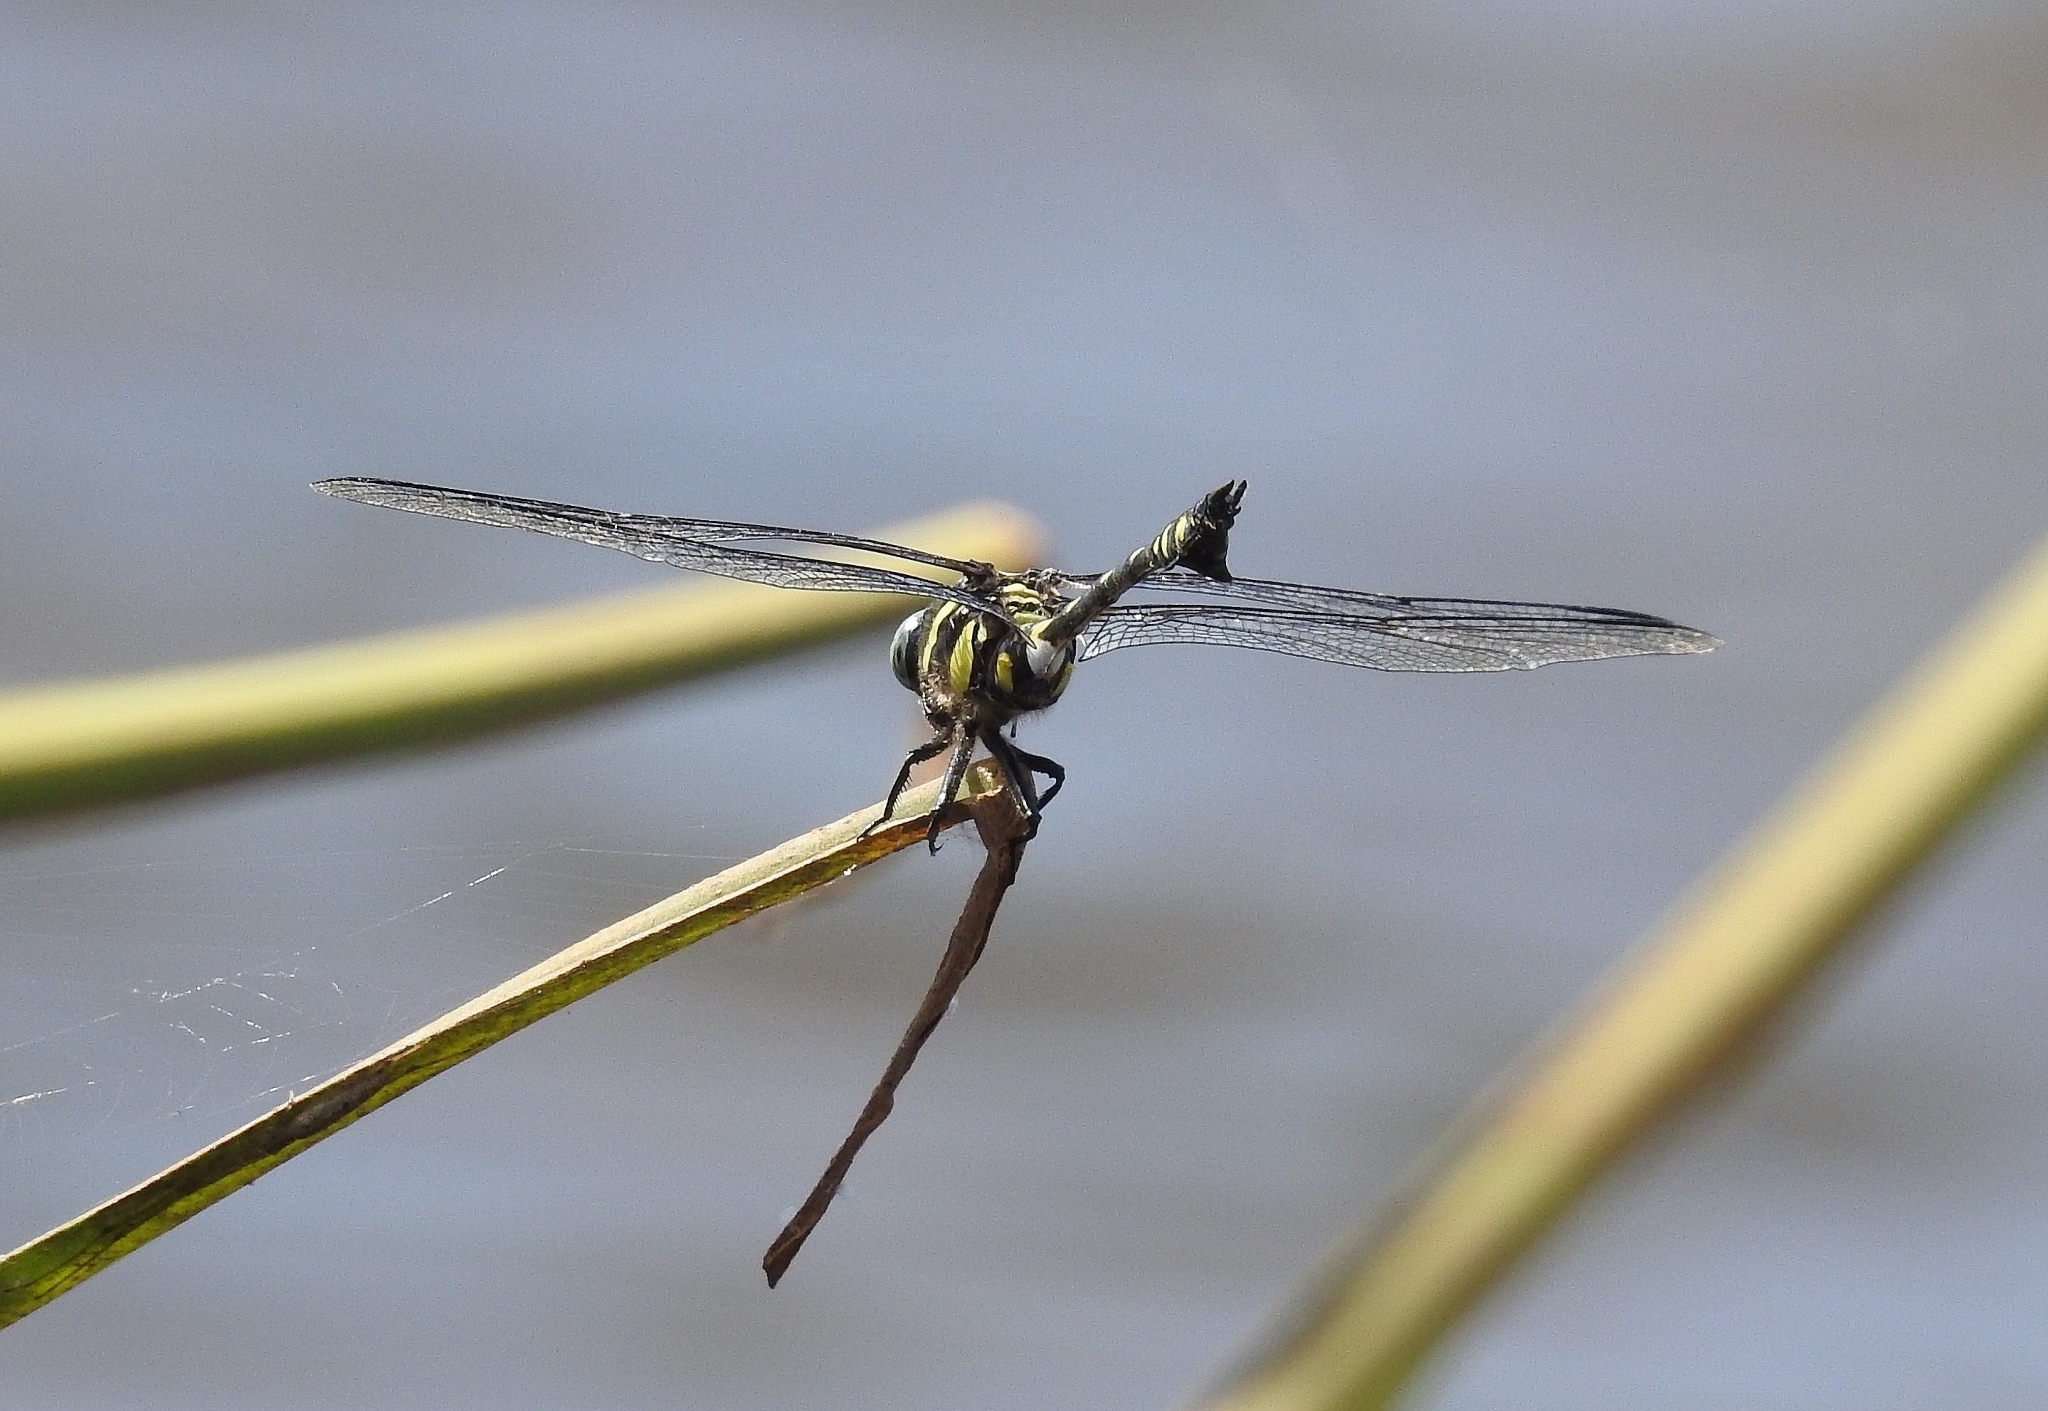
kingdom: Animalia
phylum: Arthropoda
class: Insecta
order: Odonata
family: Gomphidae
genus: Ictinogomphus
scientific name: Ictinogomphus rapax
